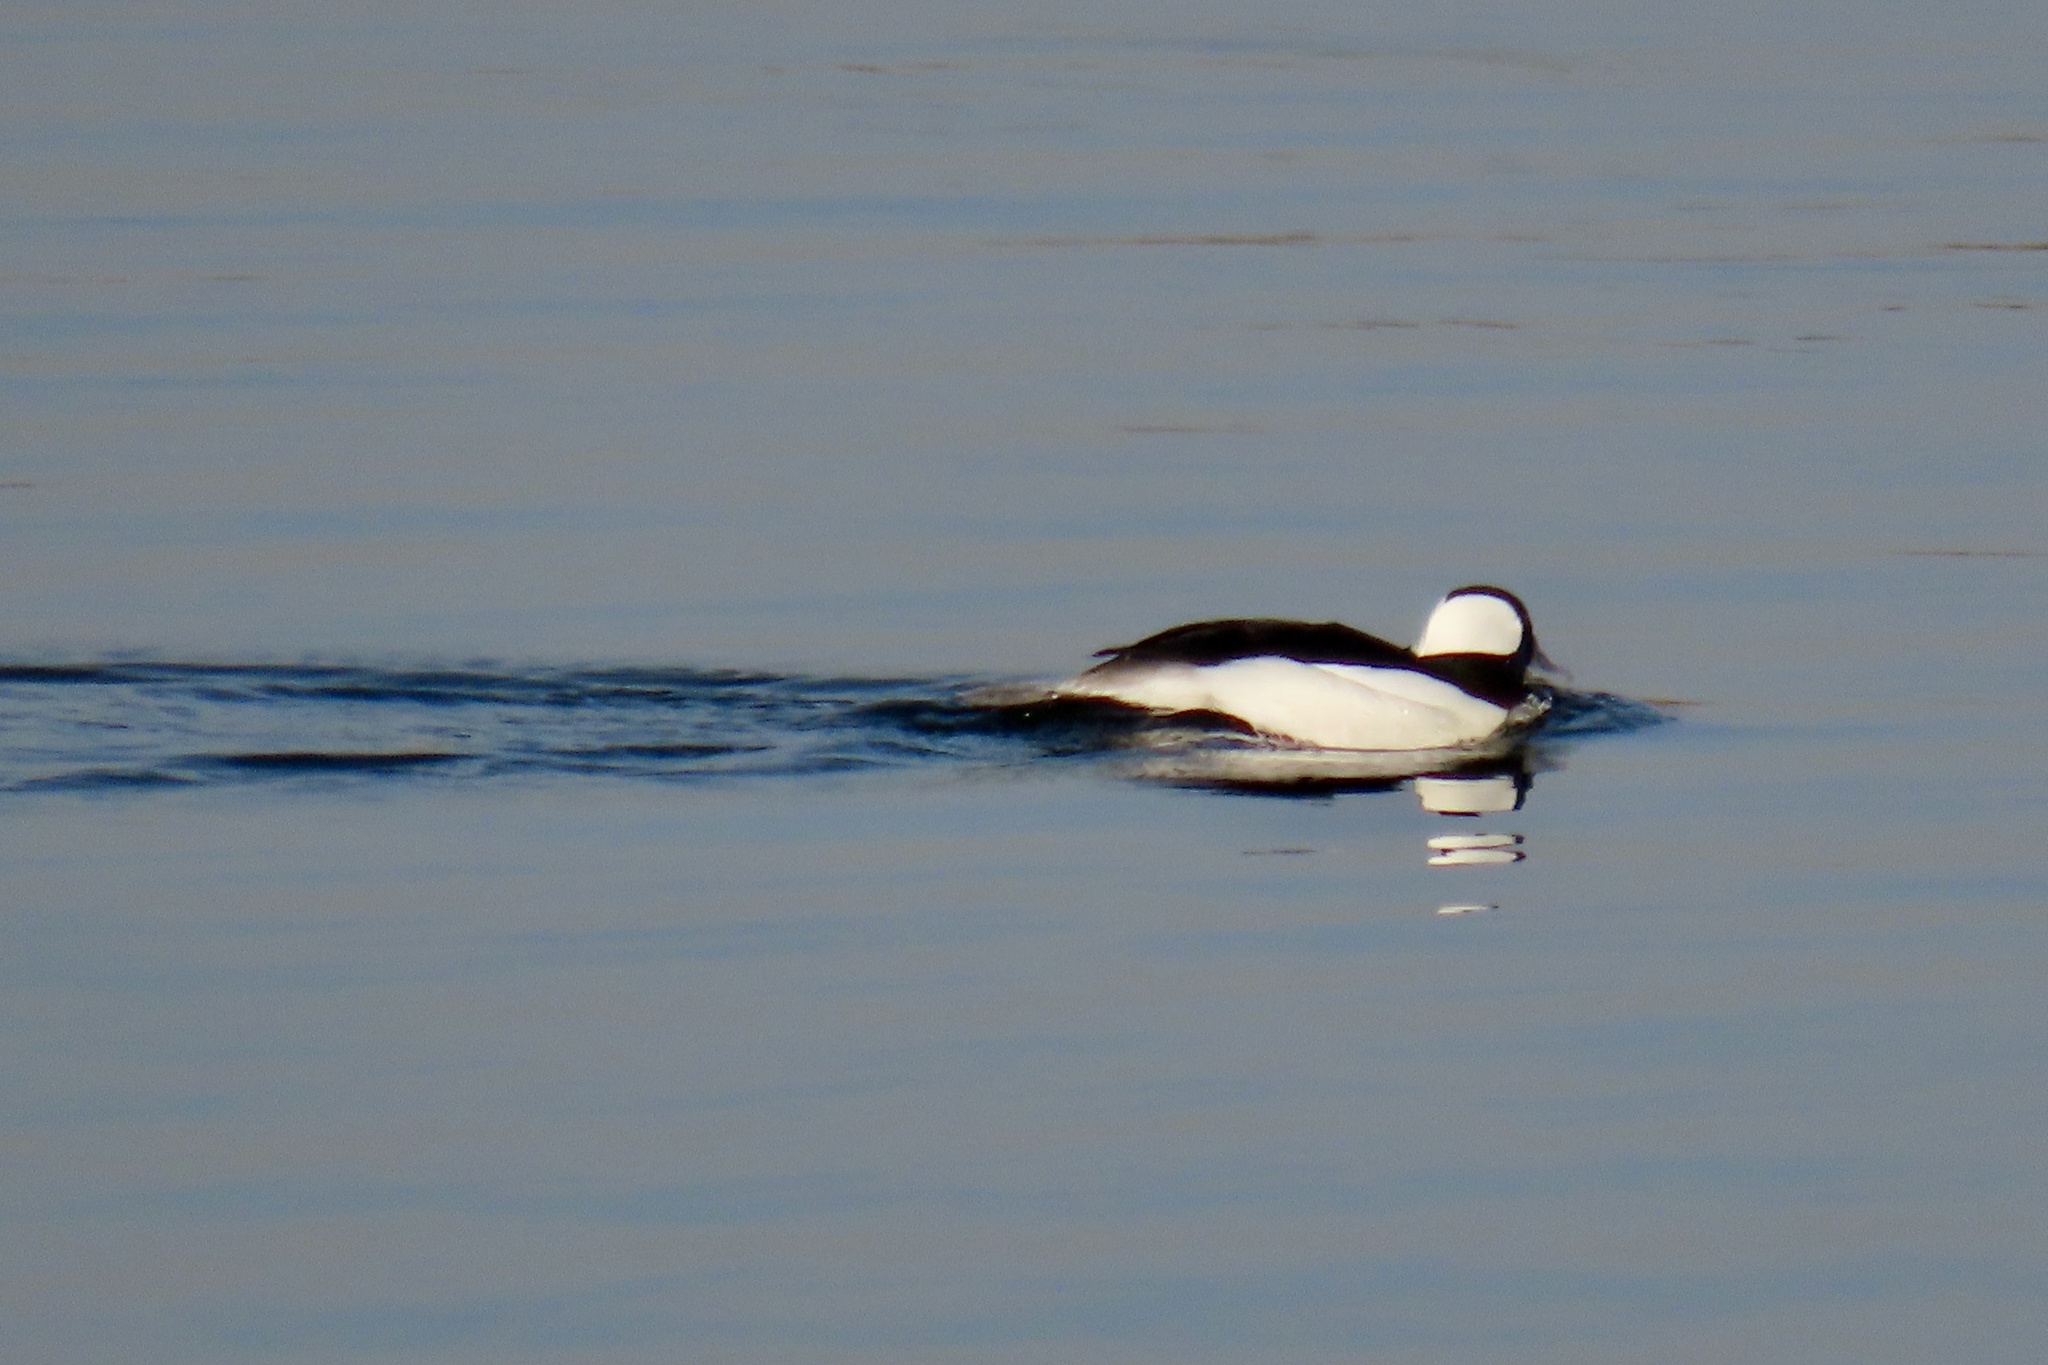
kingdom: Animalia
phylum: Chordata
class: Aves
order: Anseriformes
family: Anatidae
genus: Bucephala
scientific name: Bucephala albeola
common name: Bufflehead
